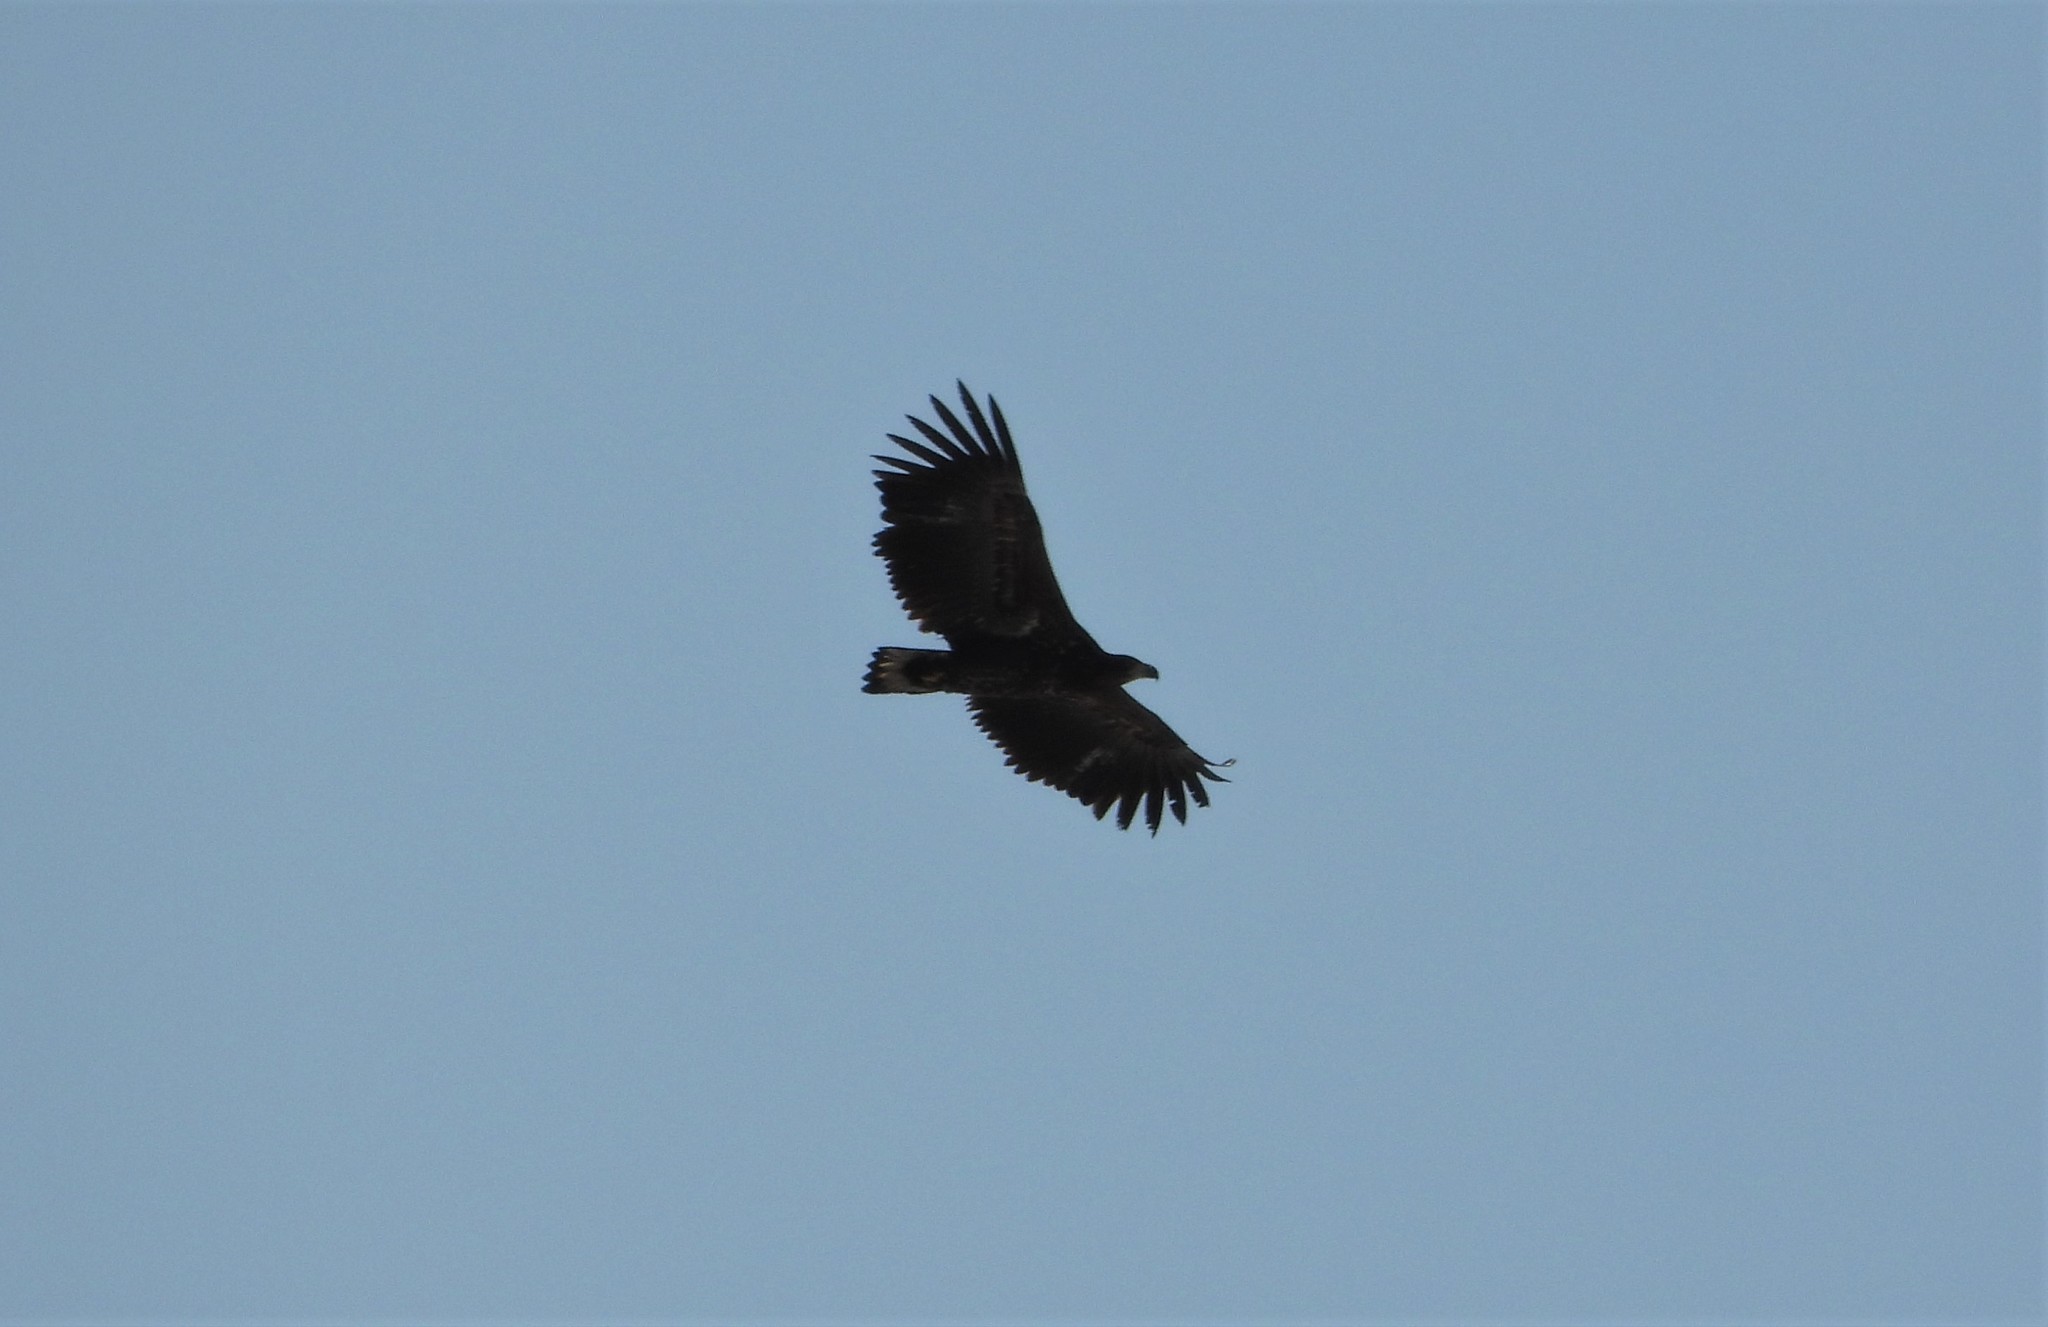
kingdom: Animalia
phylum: Chordata
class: Aves
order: Accipitriformes
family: Accipitridae
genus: Haliaeetus
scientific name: Haliaeetus albicilla
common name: White-tailed eagle
